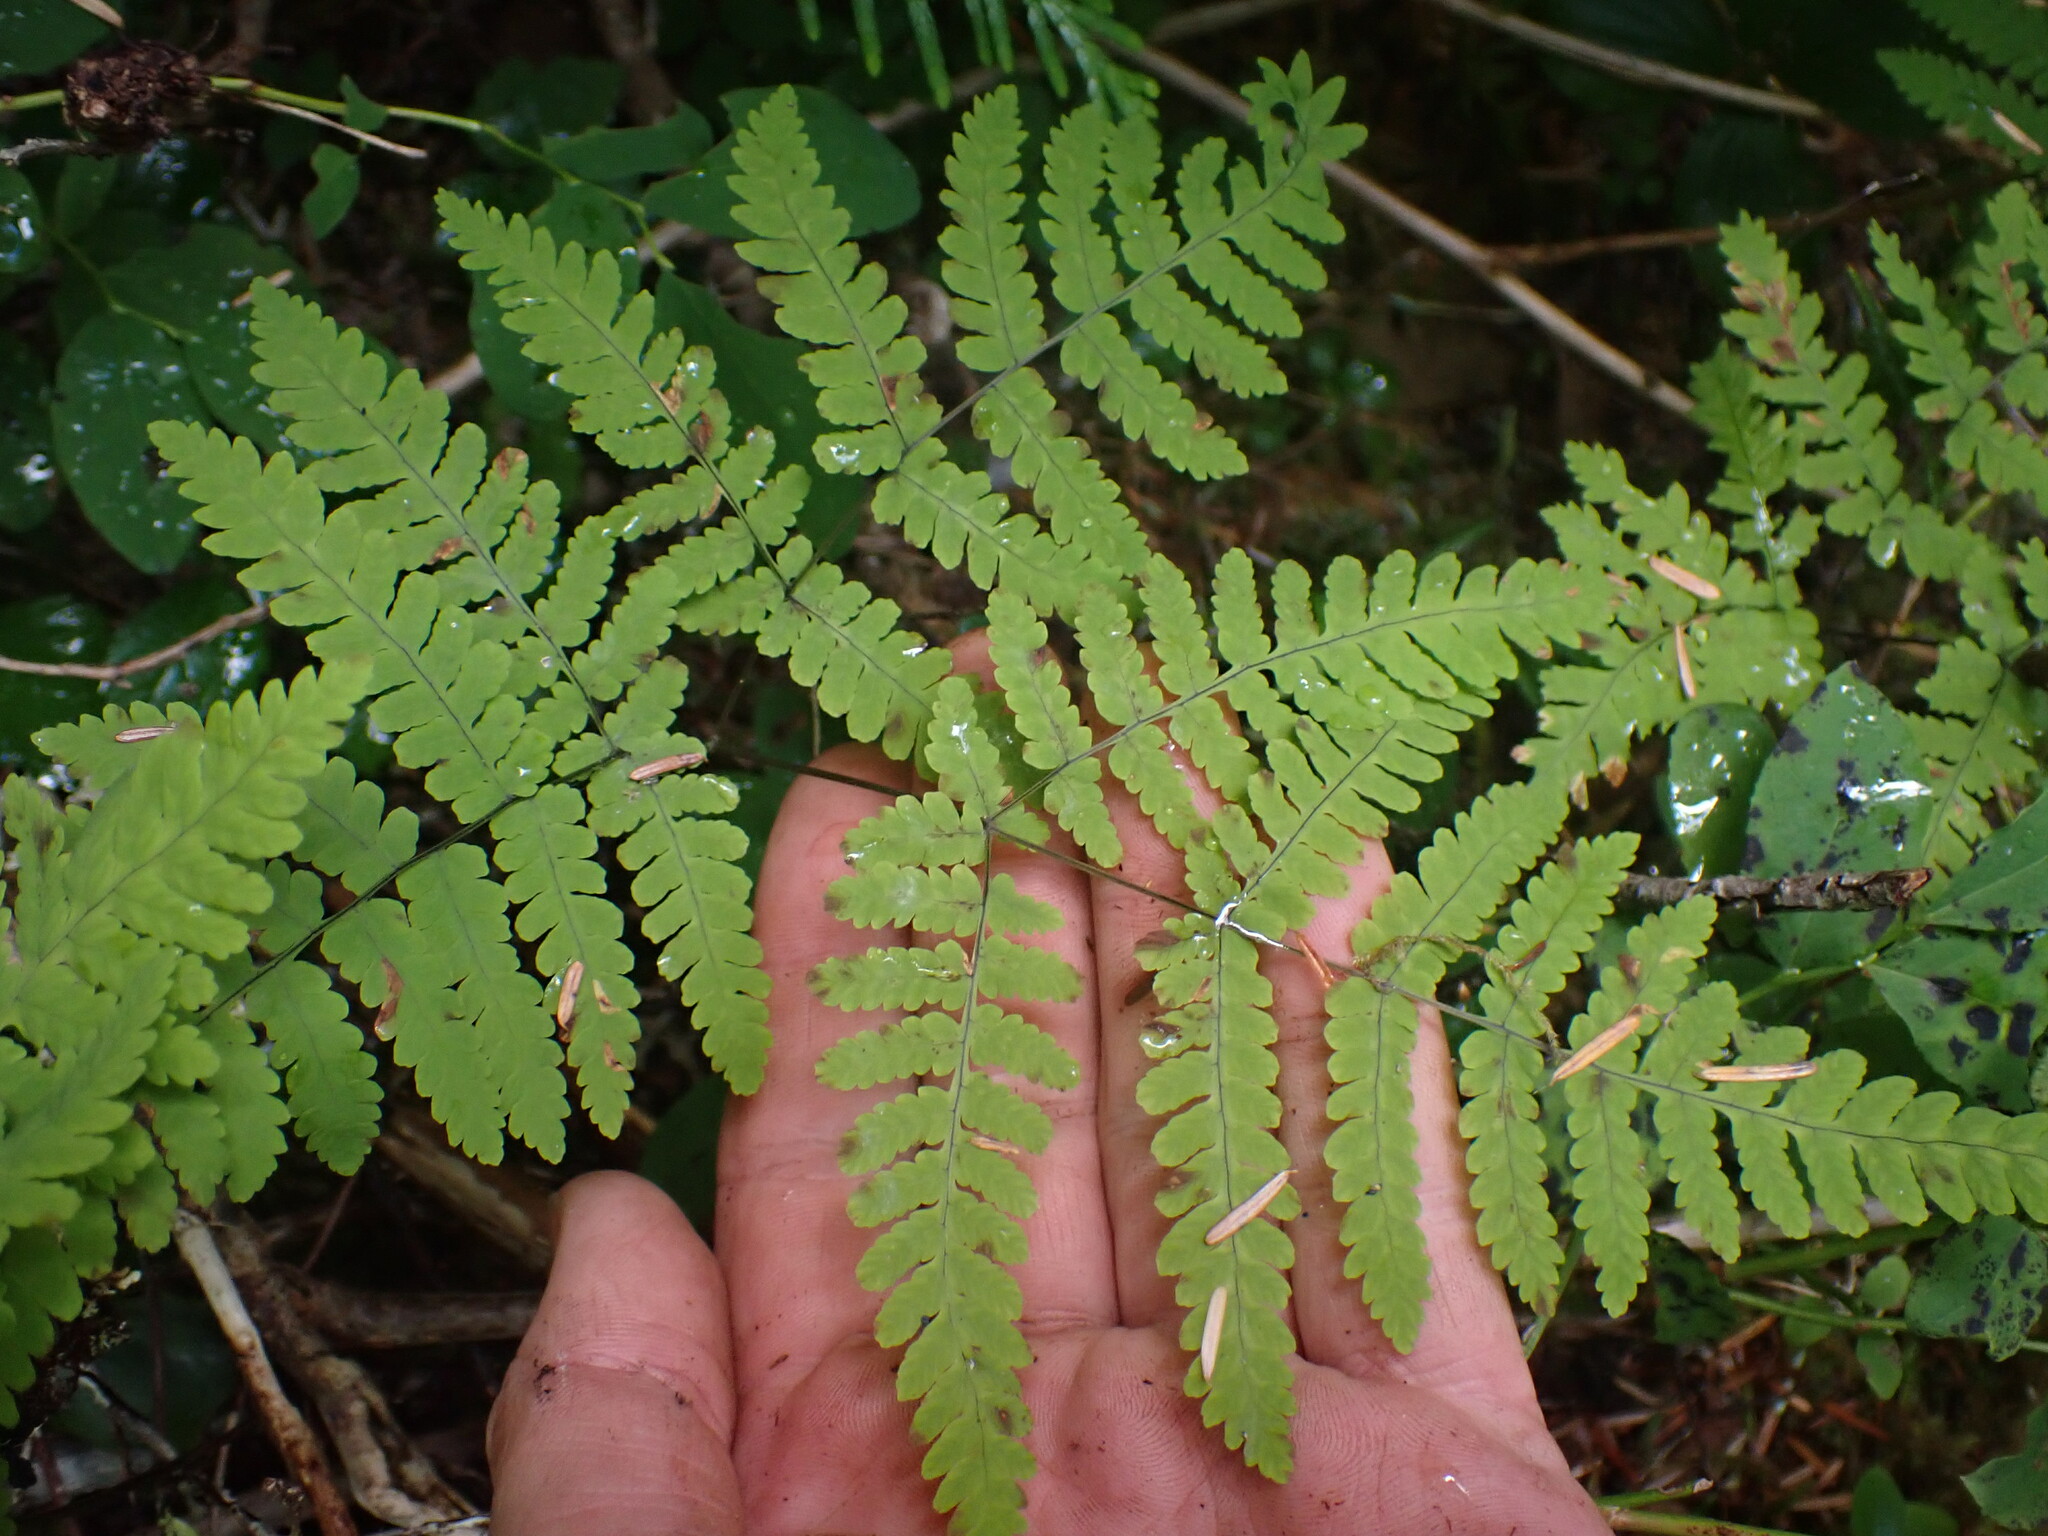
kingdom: Plantae
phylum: Tracheophyta
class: Polypodiopsida
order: Polypodiales
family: Cystopteridaceae
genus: Gymnocarpium
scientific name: Gymnocarpium disjunctum
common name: Western oak fern
